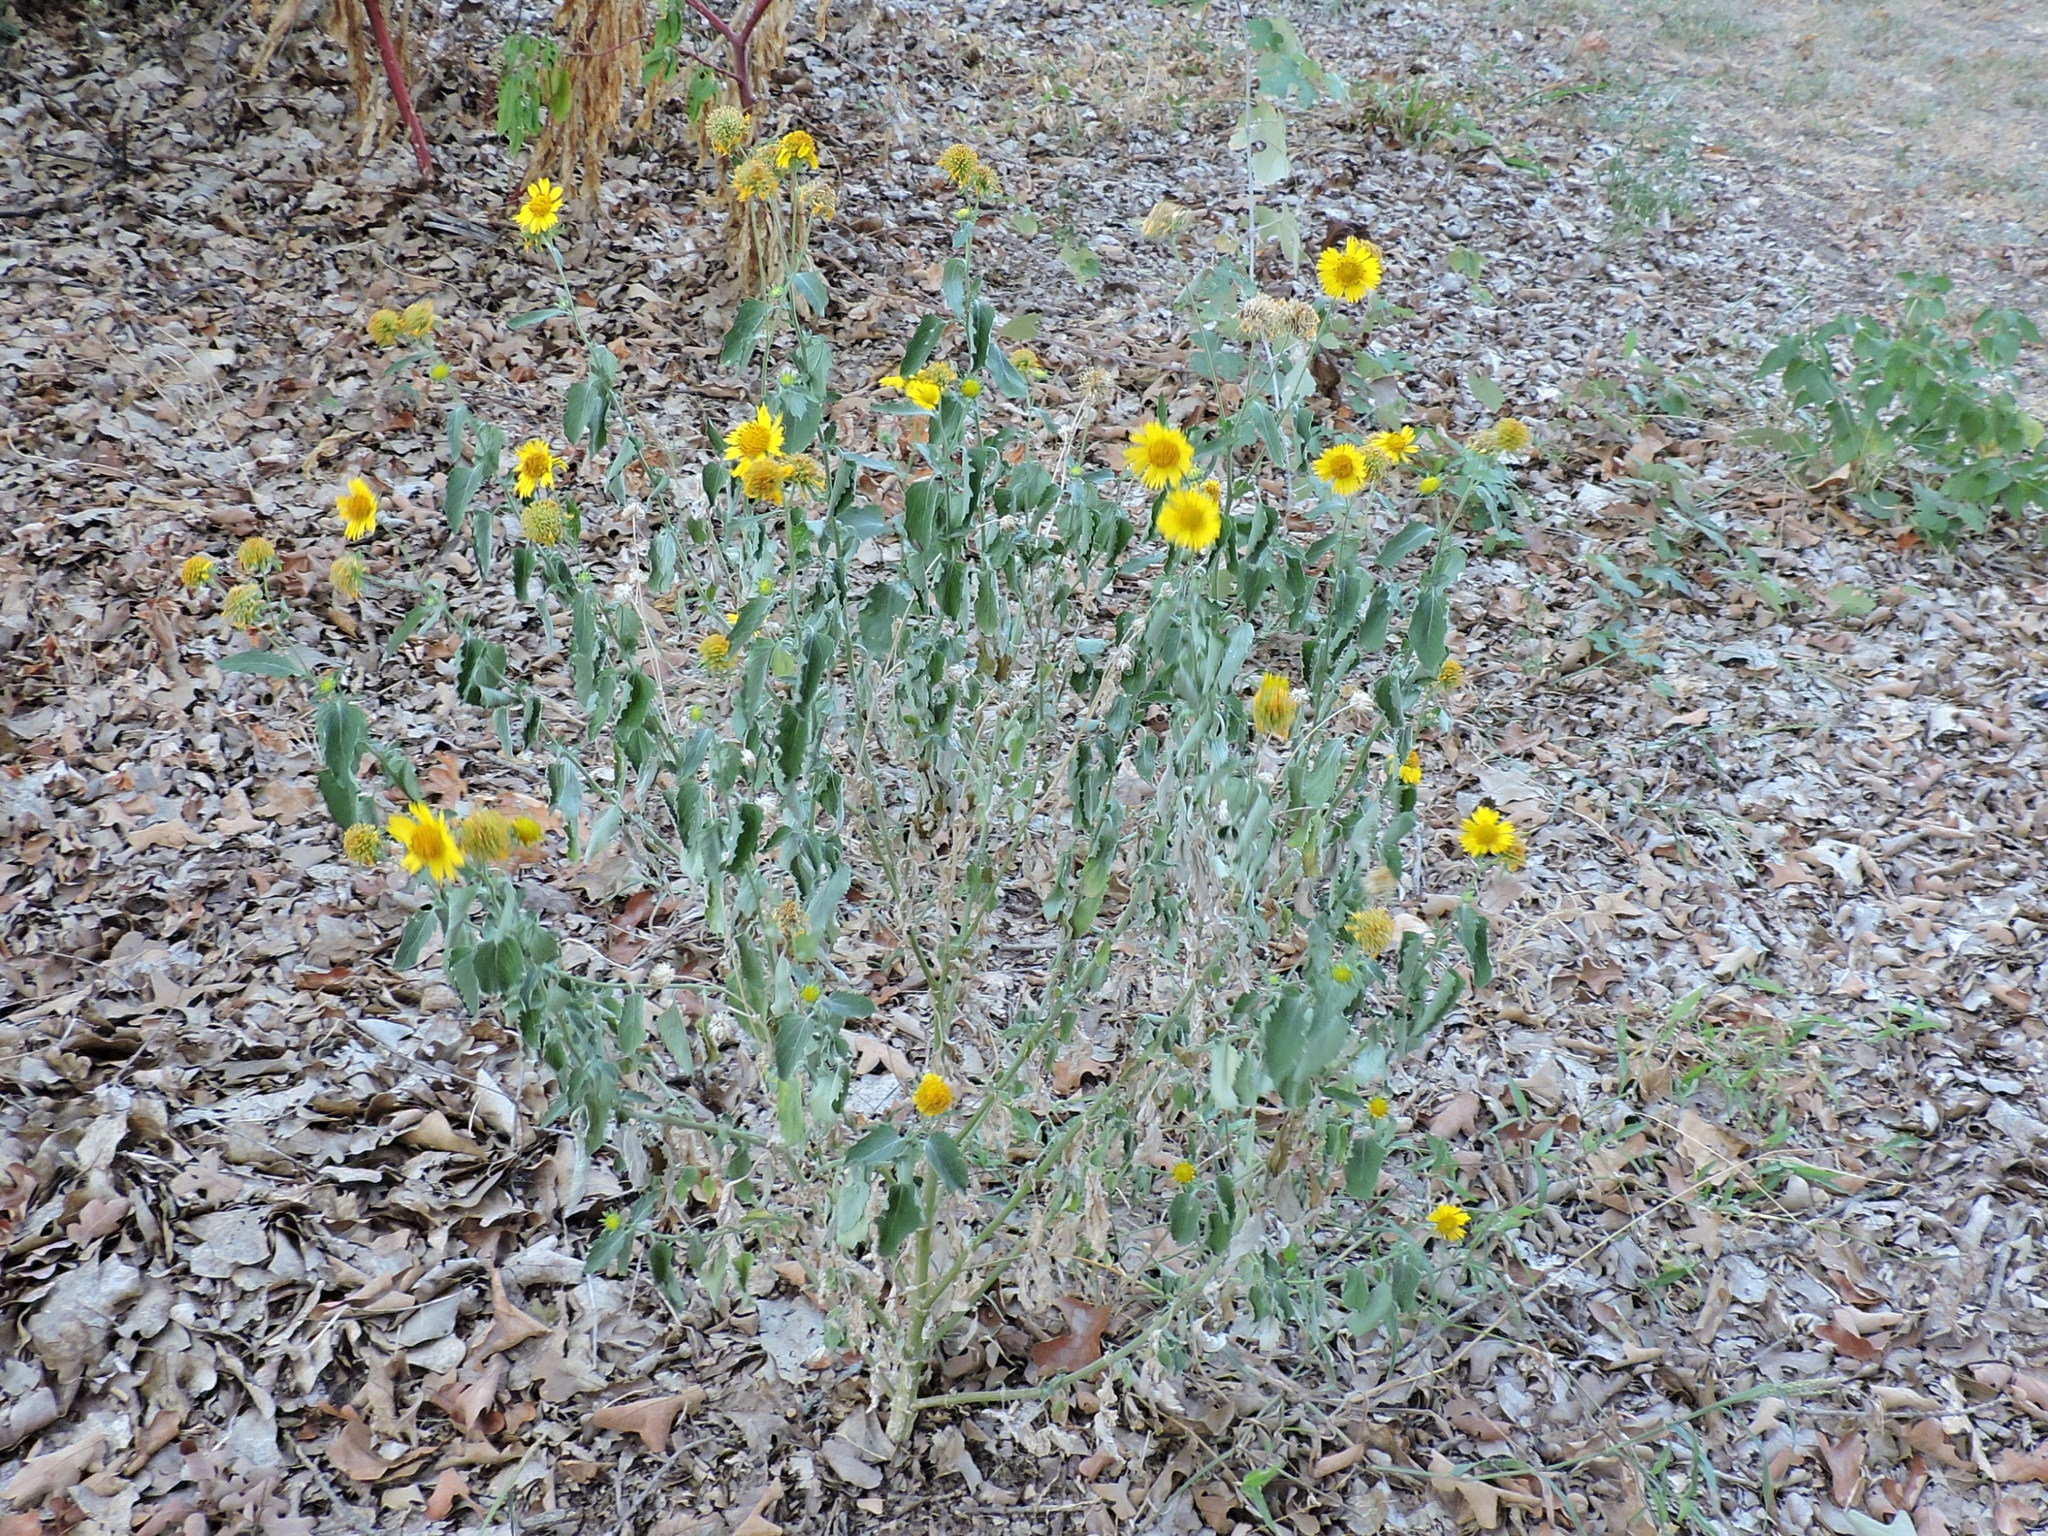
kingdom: Plantae
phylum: Tracheophyta
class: Magnoliopsida
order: Asterales
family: Asteraceae
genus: Verbesina
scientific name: Verbesina encelioides
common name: Golden crownbeard
